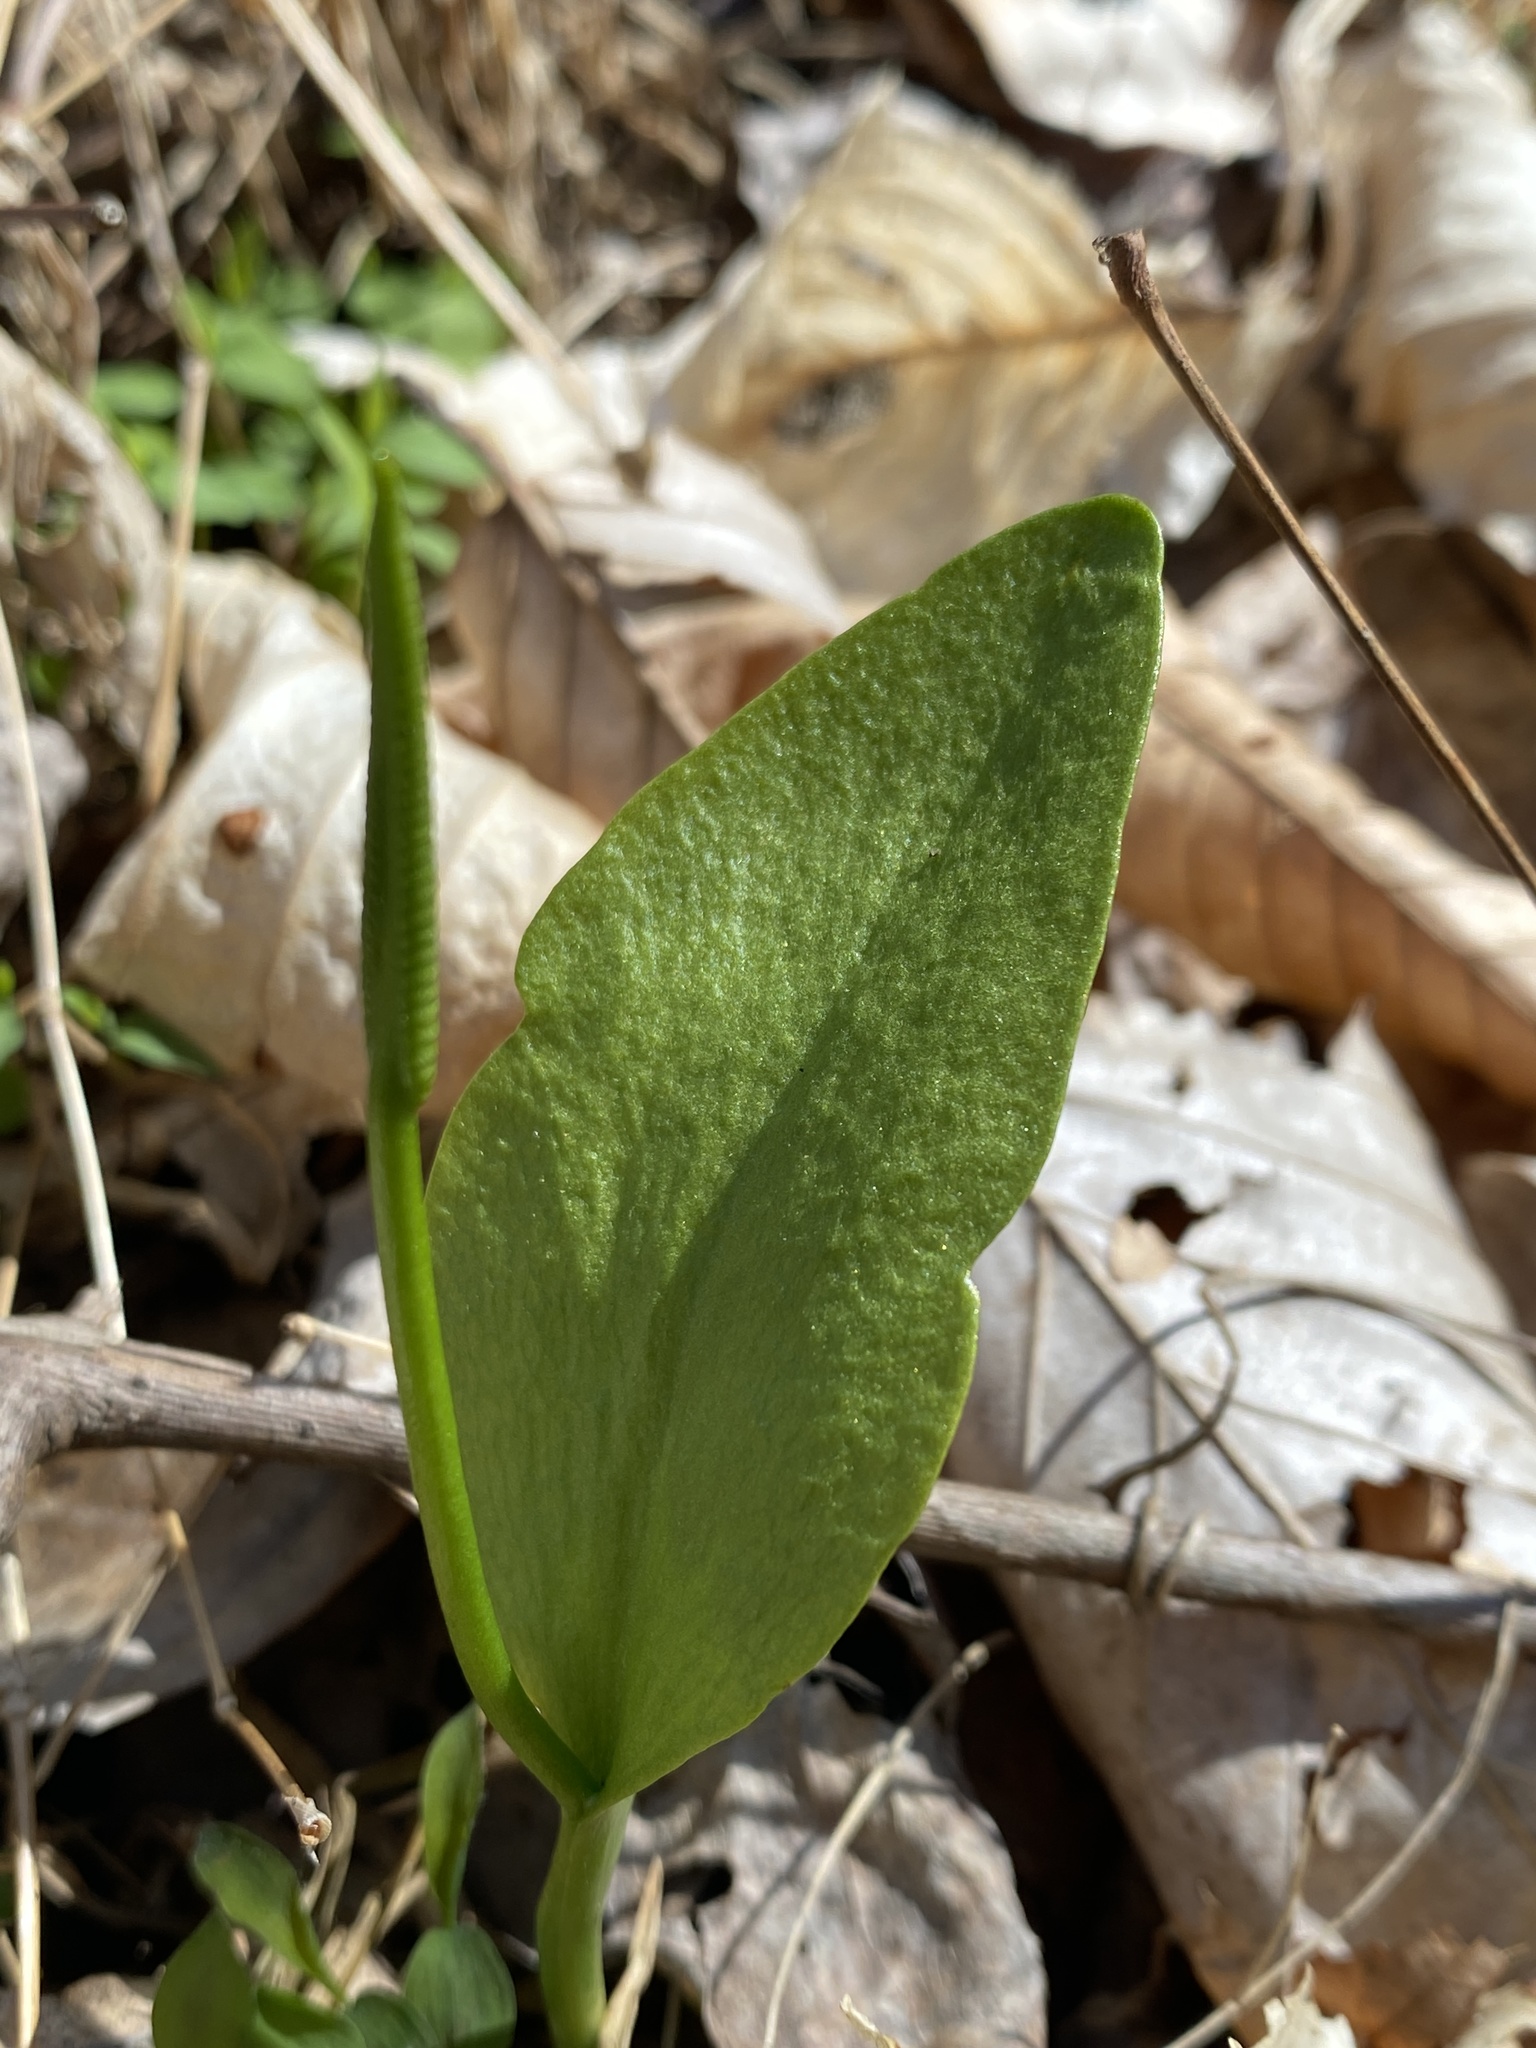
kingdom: Plantae
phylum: Tracheophyta
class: Polypodiopsida
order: Ophioglossales
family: Ophioglossaceae
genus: Ophioglossum
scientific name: Ophioglossum vulgatum
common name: Adder's-tongue
